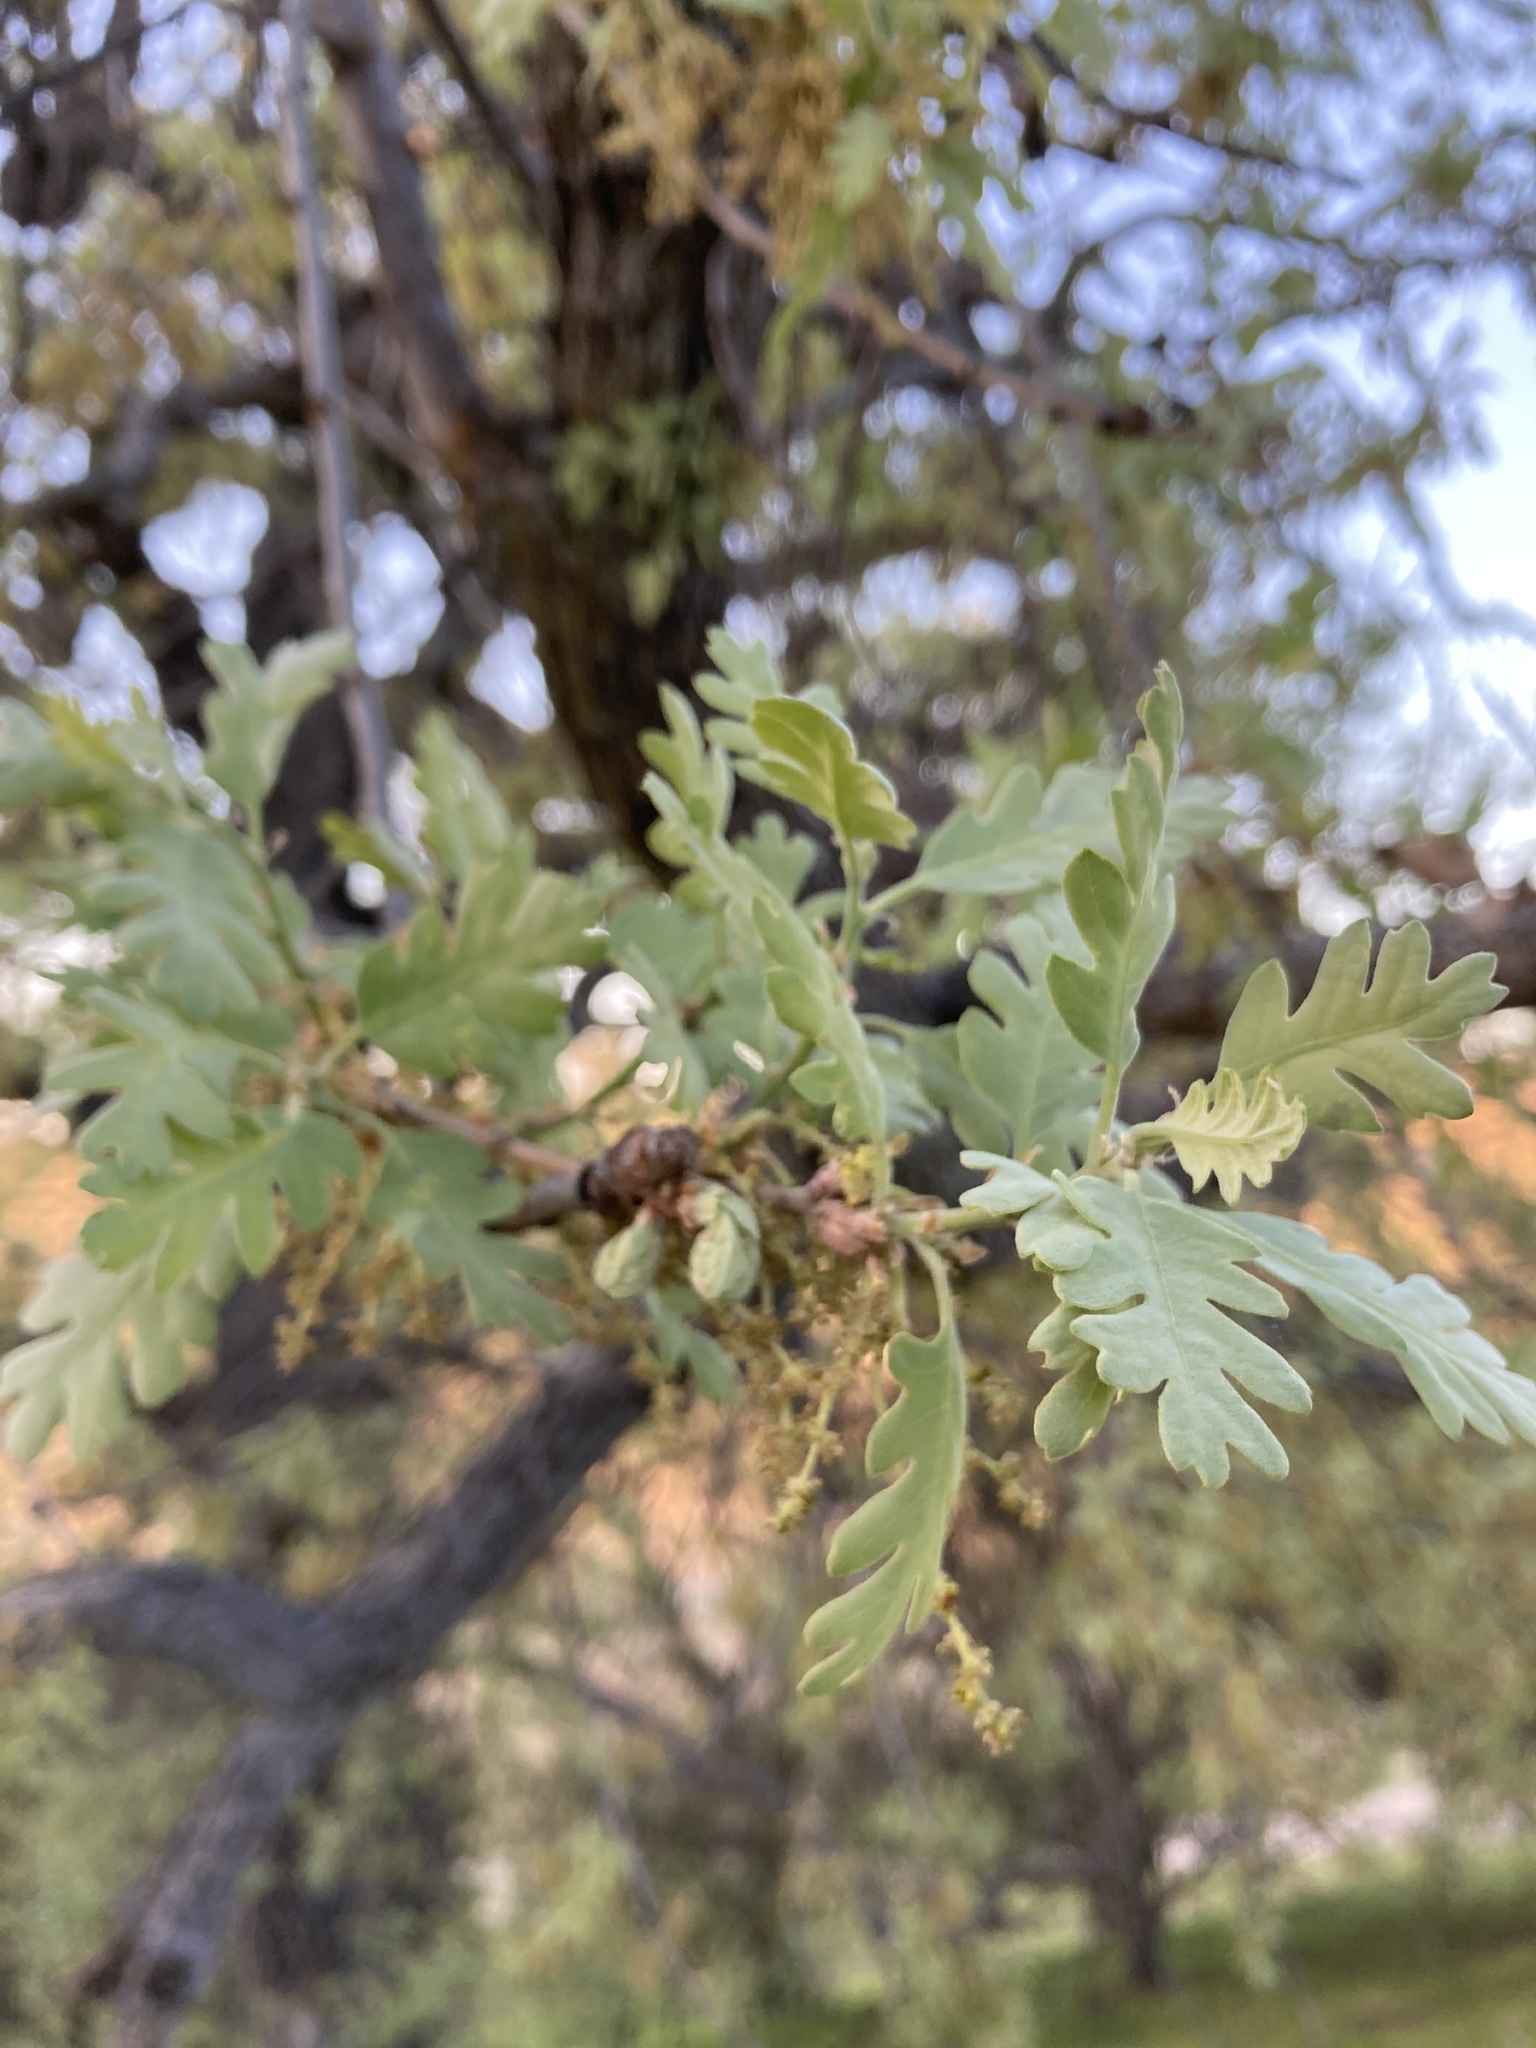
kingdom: Plantae
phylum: Tracheophyta
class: Magnoliopsida
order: Fagales
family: Fagaceae
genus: Quercus
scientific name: Quercus lobata
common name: Valley oak
